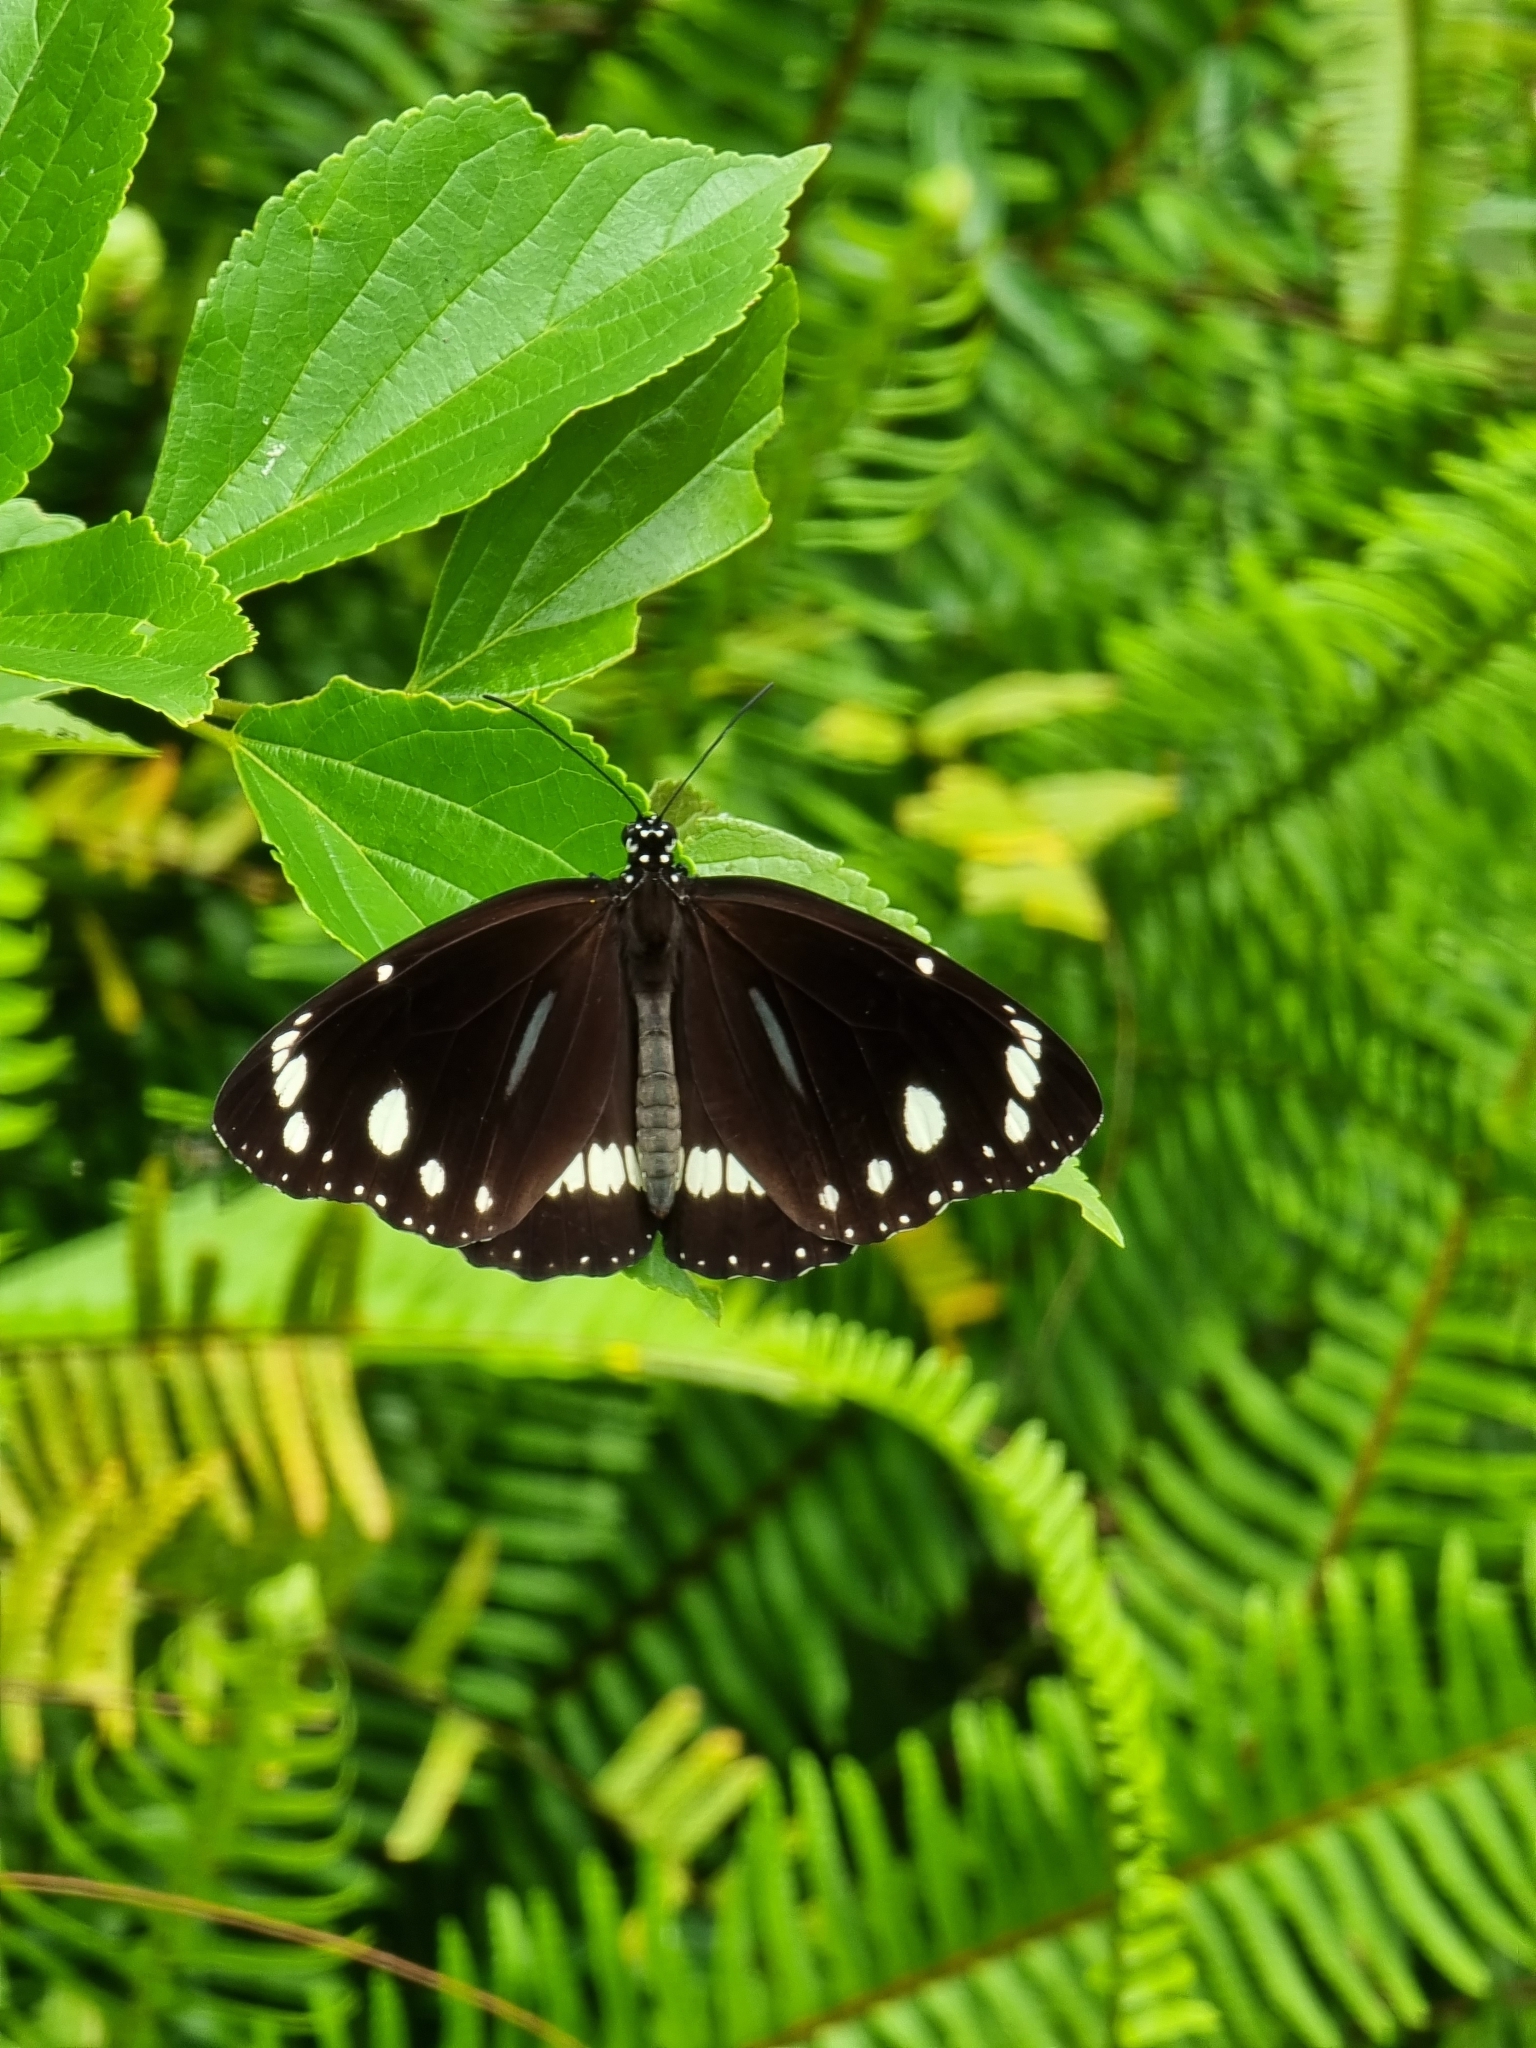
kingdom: Animalia
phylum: Arthropoda
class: Insecta
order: Lepidoptera
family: Nymphalidae
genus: Euploea
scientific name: Euploea core
